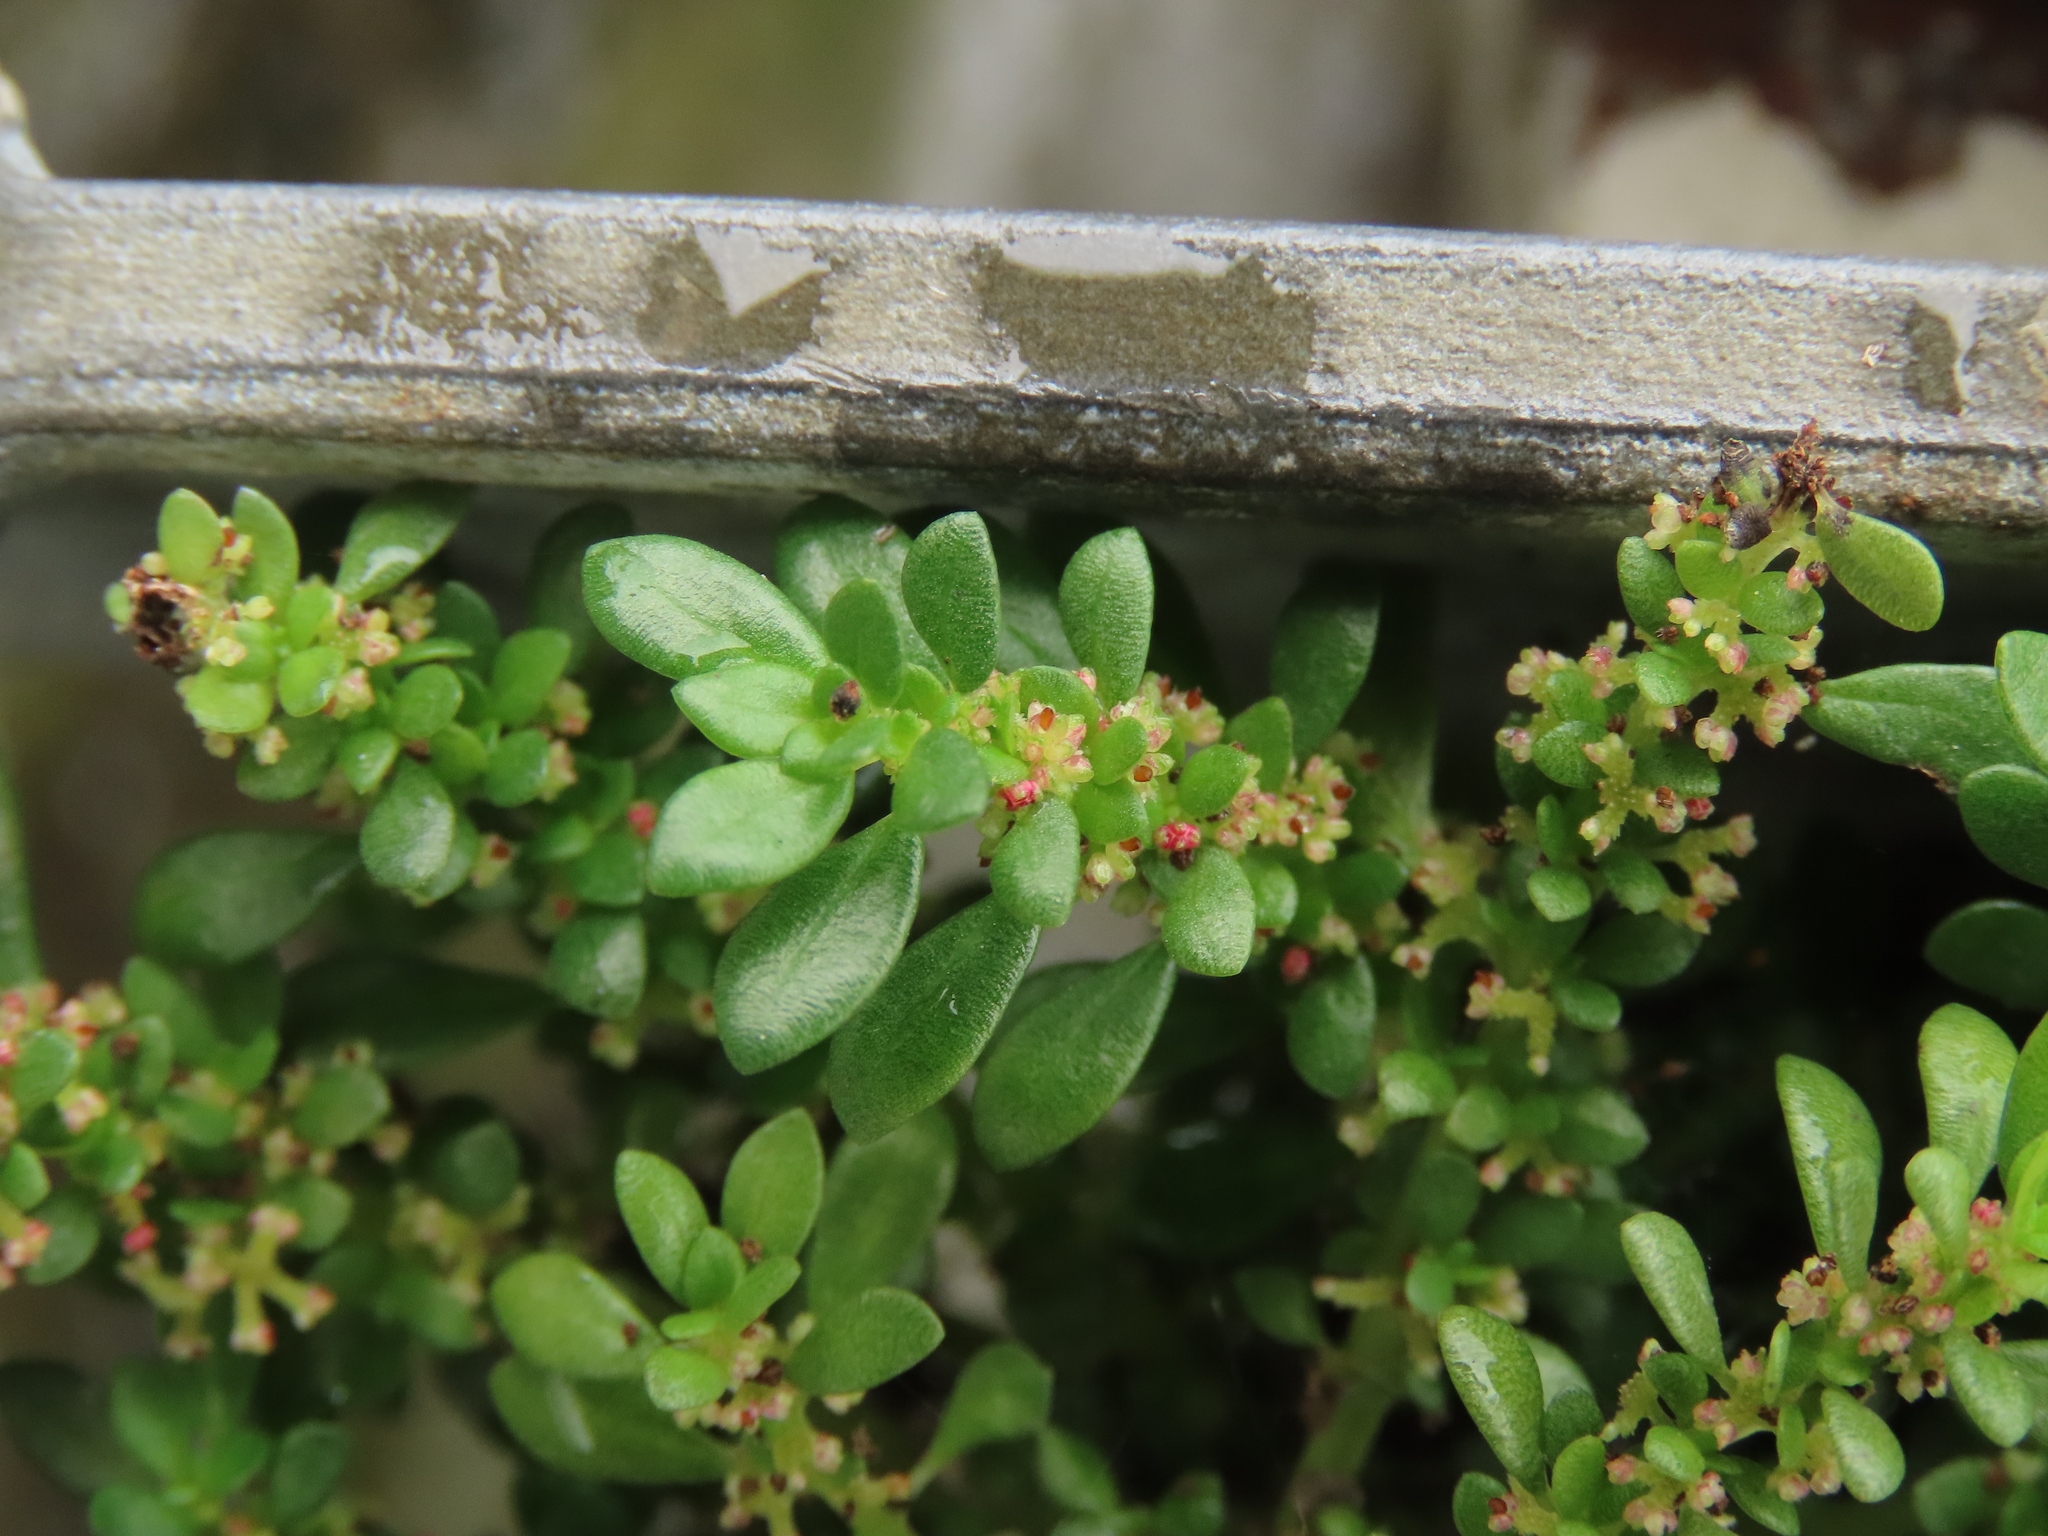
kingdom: Plantae
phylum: Tracheophyta
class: Magnoliopsida
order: Rosales
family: Urticaceae
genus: Pilea
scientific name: Pilea microphylla
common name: Artillery-plant
